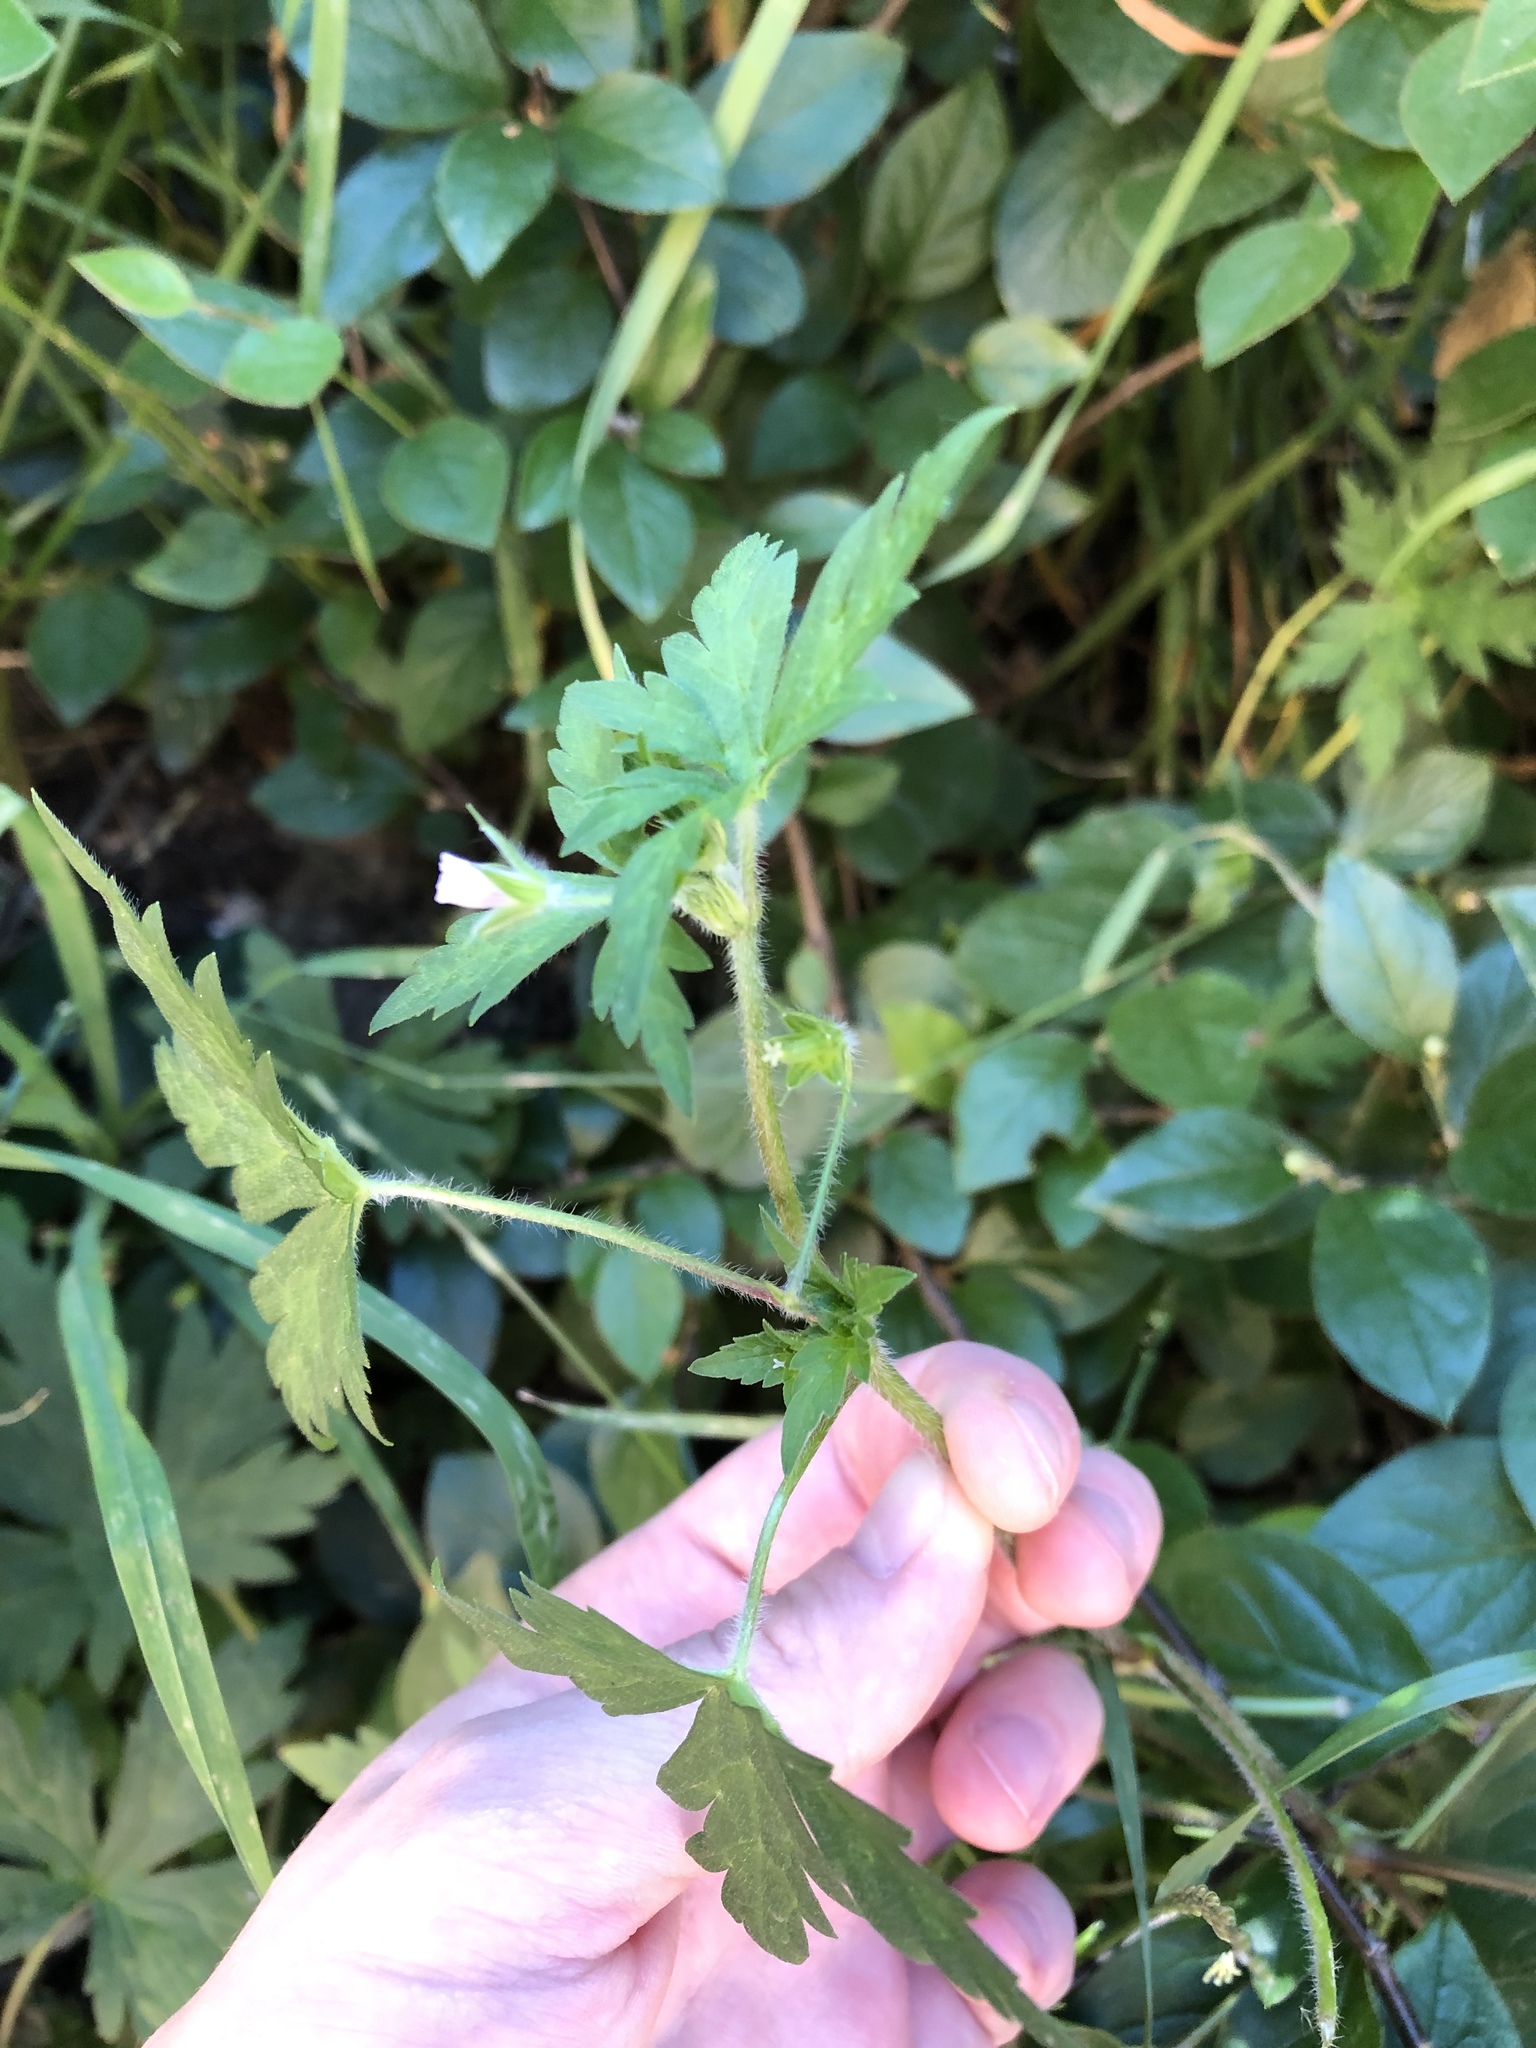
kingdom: Plantae
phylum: Tracheophyta
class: Magnoliopsida
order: Geraniales
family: Geraniaceae
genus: Geranium
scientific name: Geranium sibiricum
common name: Siberian crane's-bill
